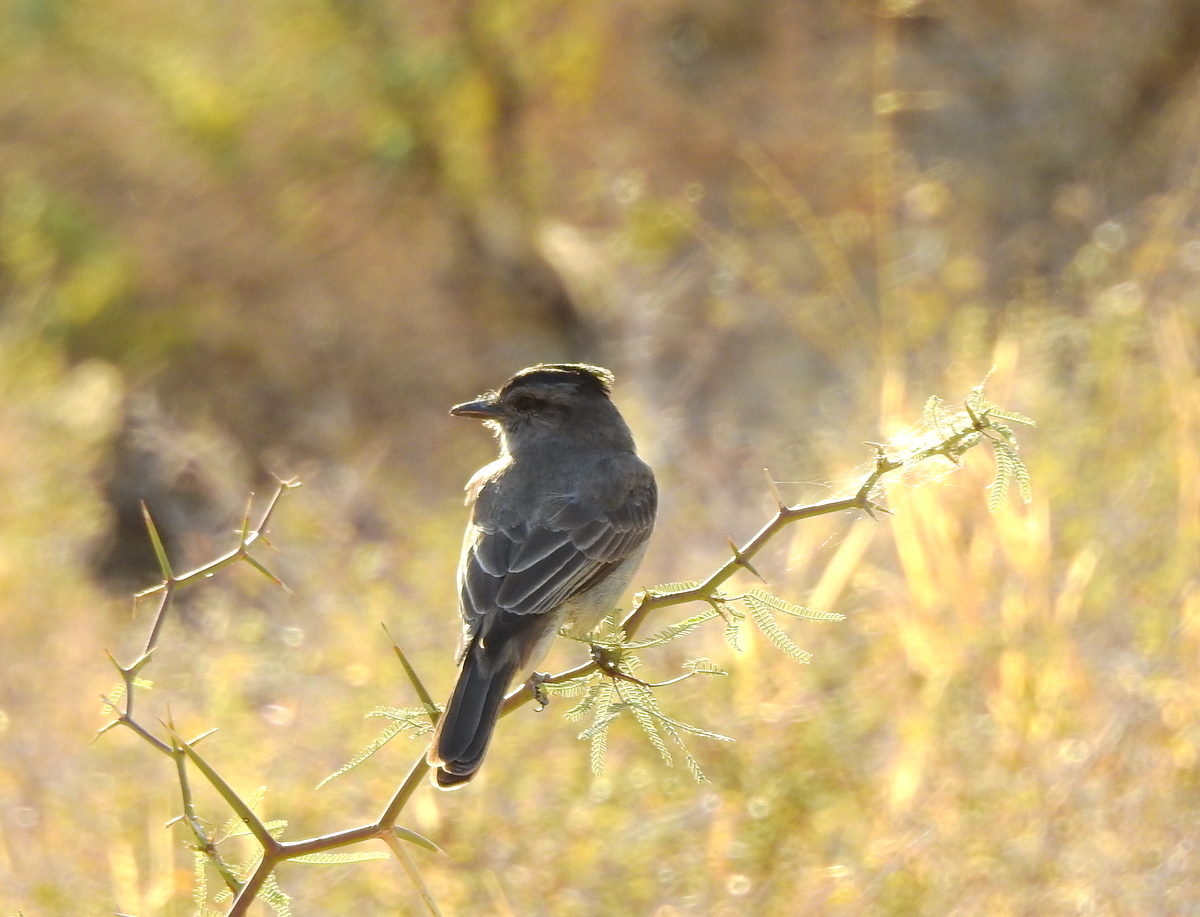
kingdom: Animalia
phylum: Chordata
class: Aves
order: Passeriformes
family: Tyrannidae
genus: Empidonomus
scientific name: Empidonomus aurantioatrocristatus
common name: Crowned slaty flycatcher
